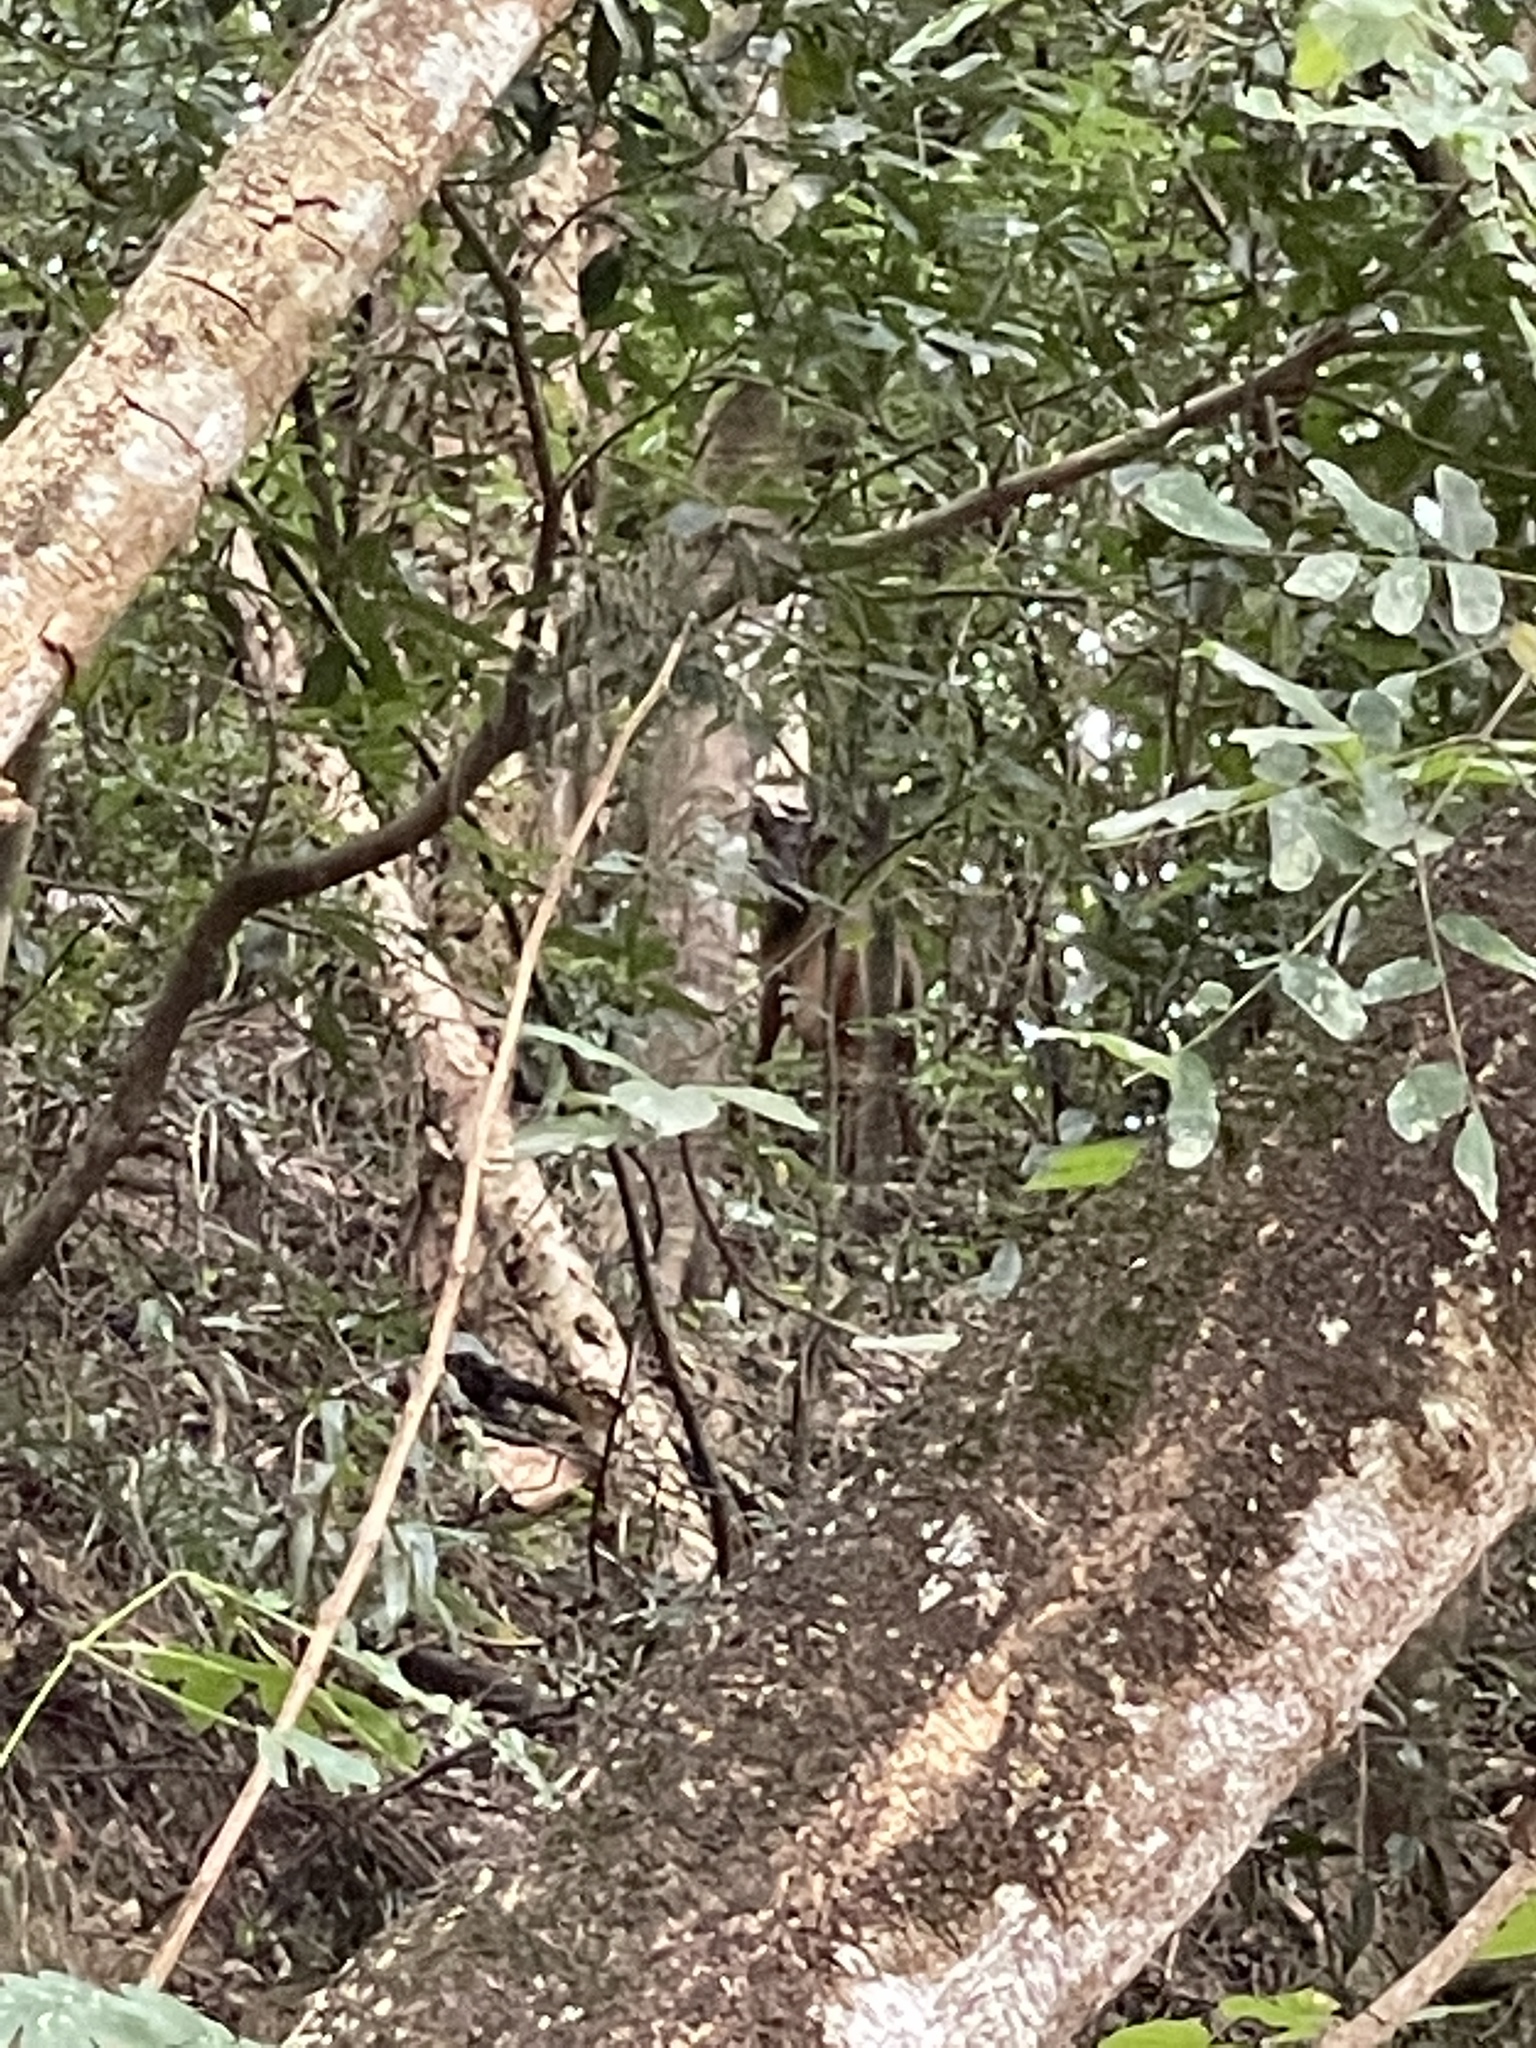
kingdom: Animalia
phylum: Chordata
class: Mammalia
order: Artiodactyla
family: Cervidae
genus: Muntiacus
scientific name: Muntiacus muntjak
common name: Indian muntjac
